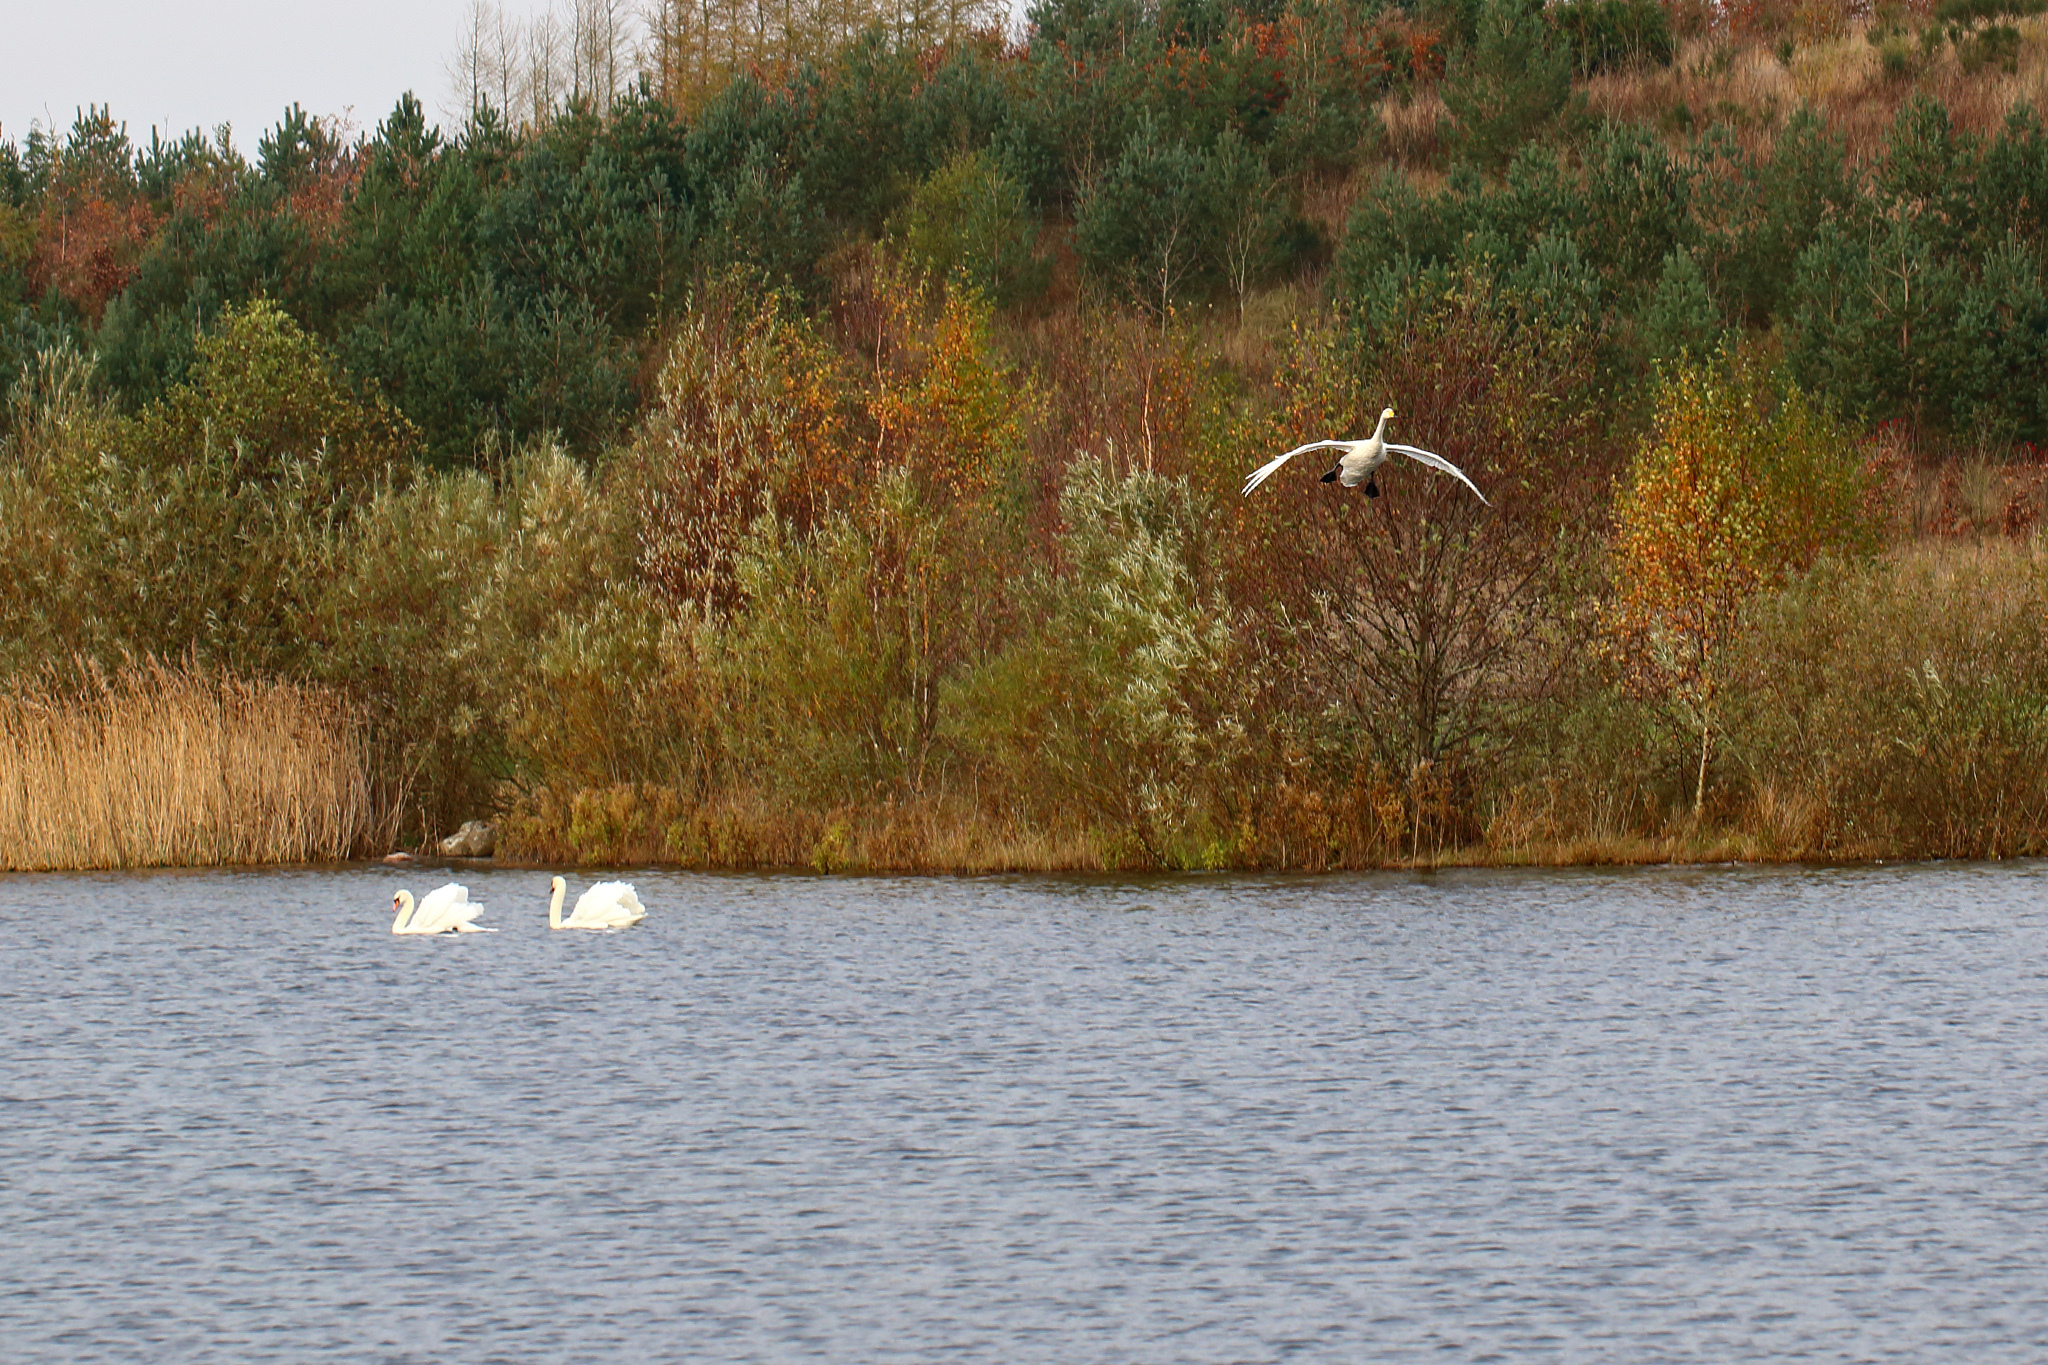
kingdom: Animalia
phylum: Chordata
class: Aves
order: Anseriformes
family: Anatidae
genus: Cygnus
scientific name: Cygnus cygnus
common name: Whooper swan
